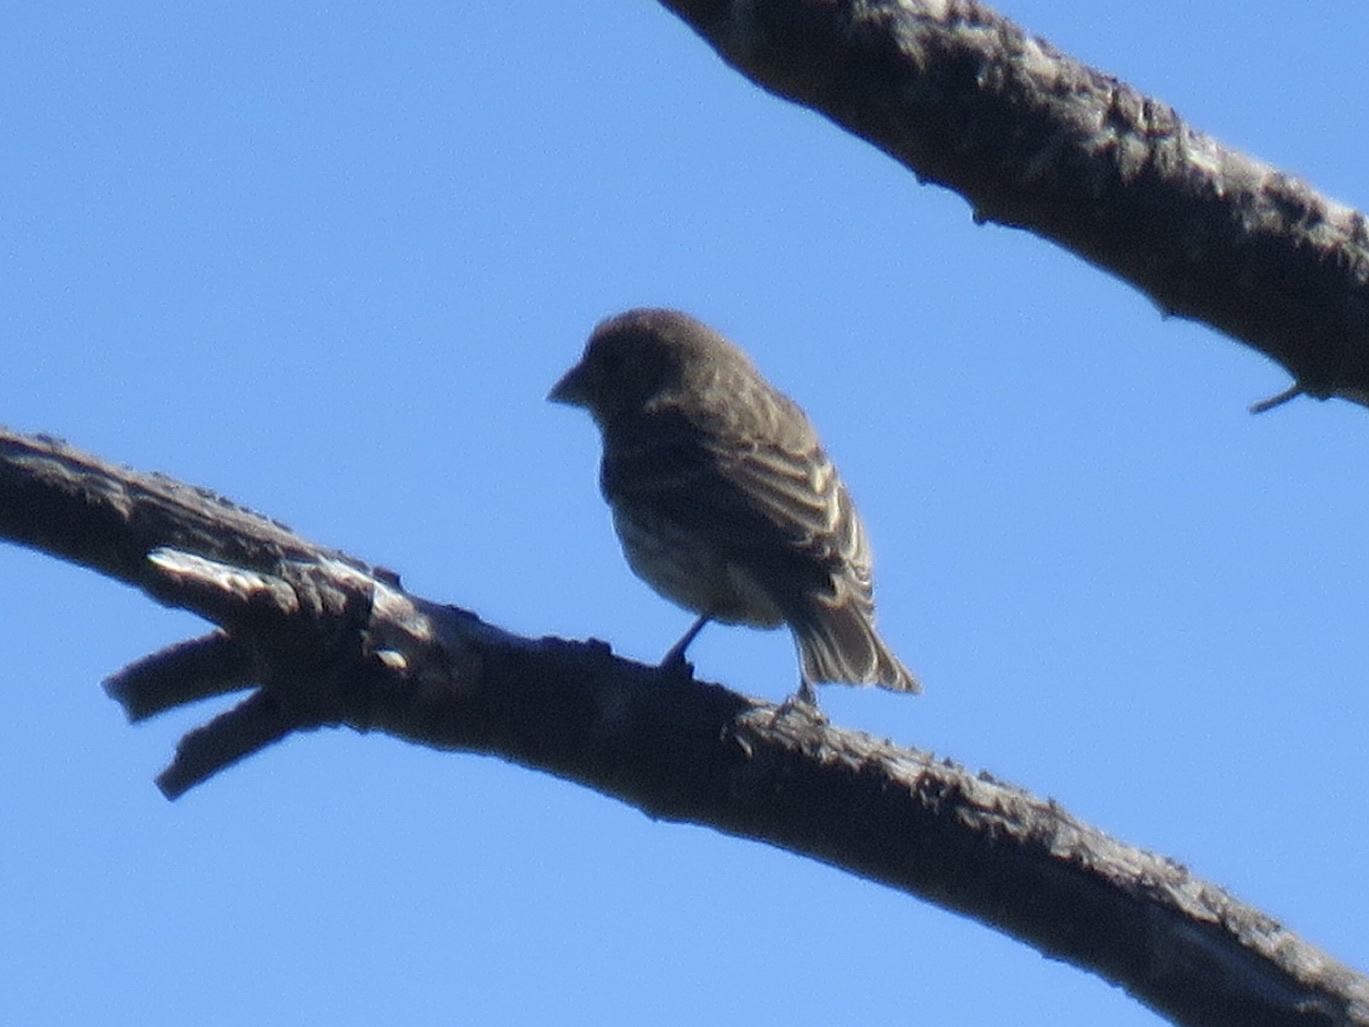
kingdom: Animalia
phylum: Chordata
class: Aves
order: Passeriformes
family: Fringillidae
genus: Haemorhous
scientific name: Haemorhous mexicanus
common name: House finch
